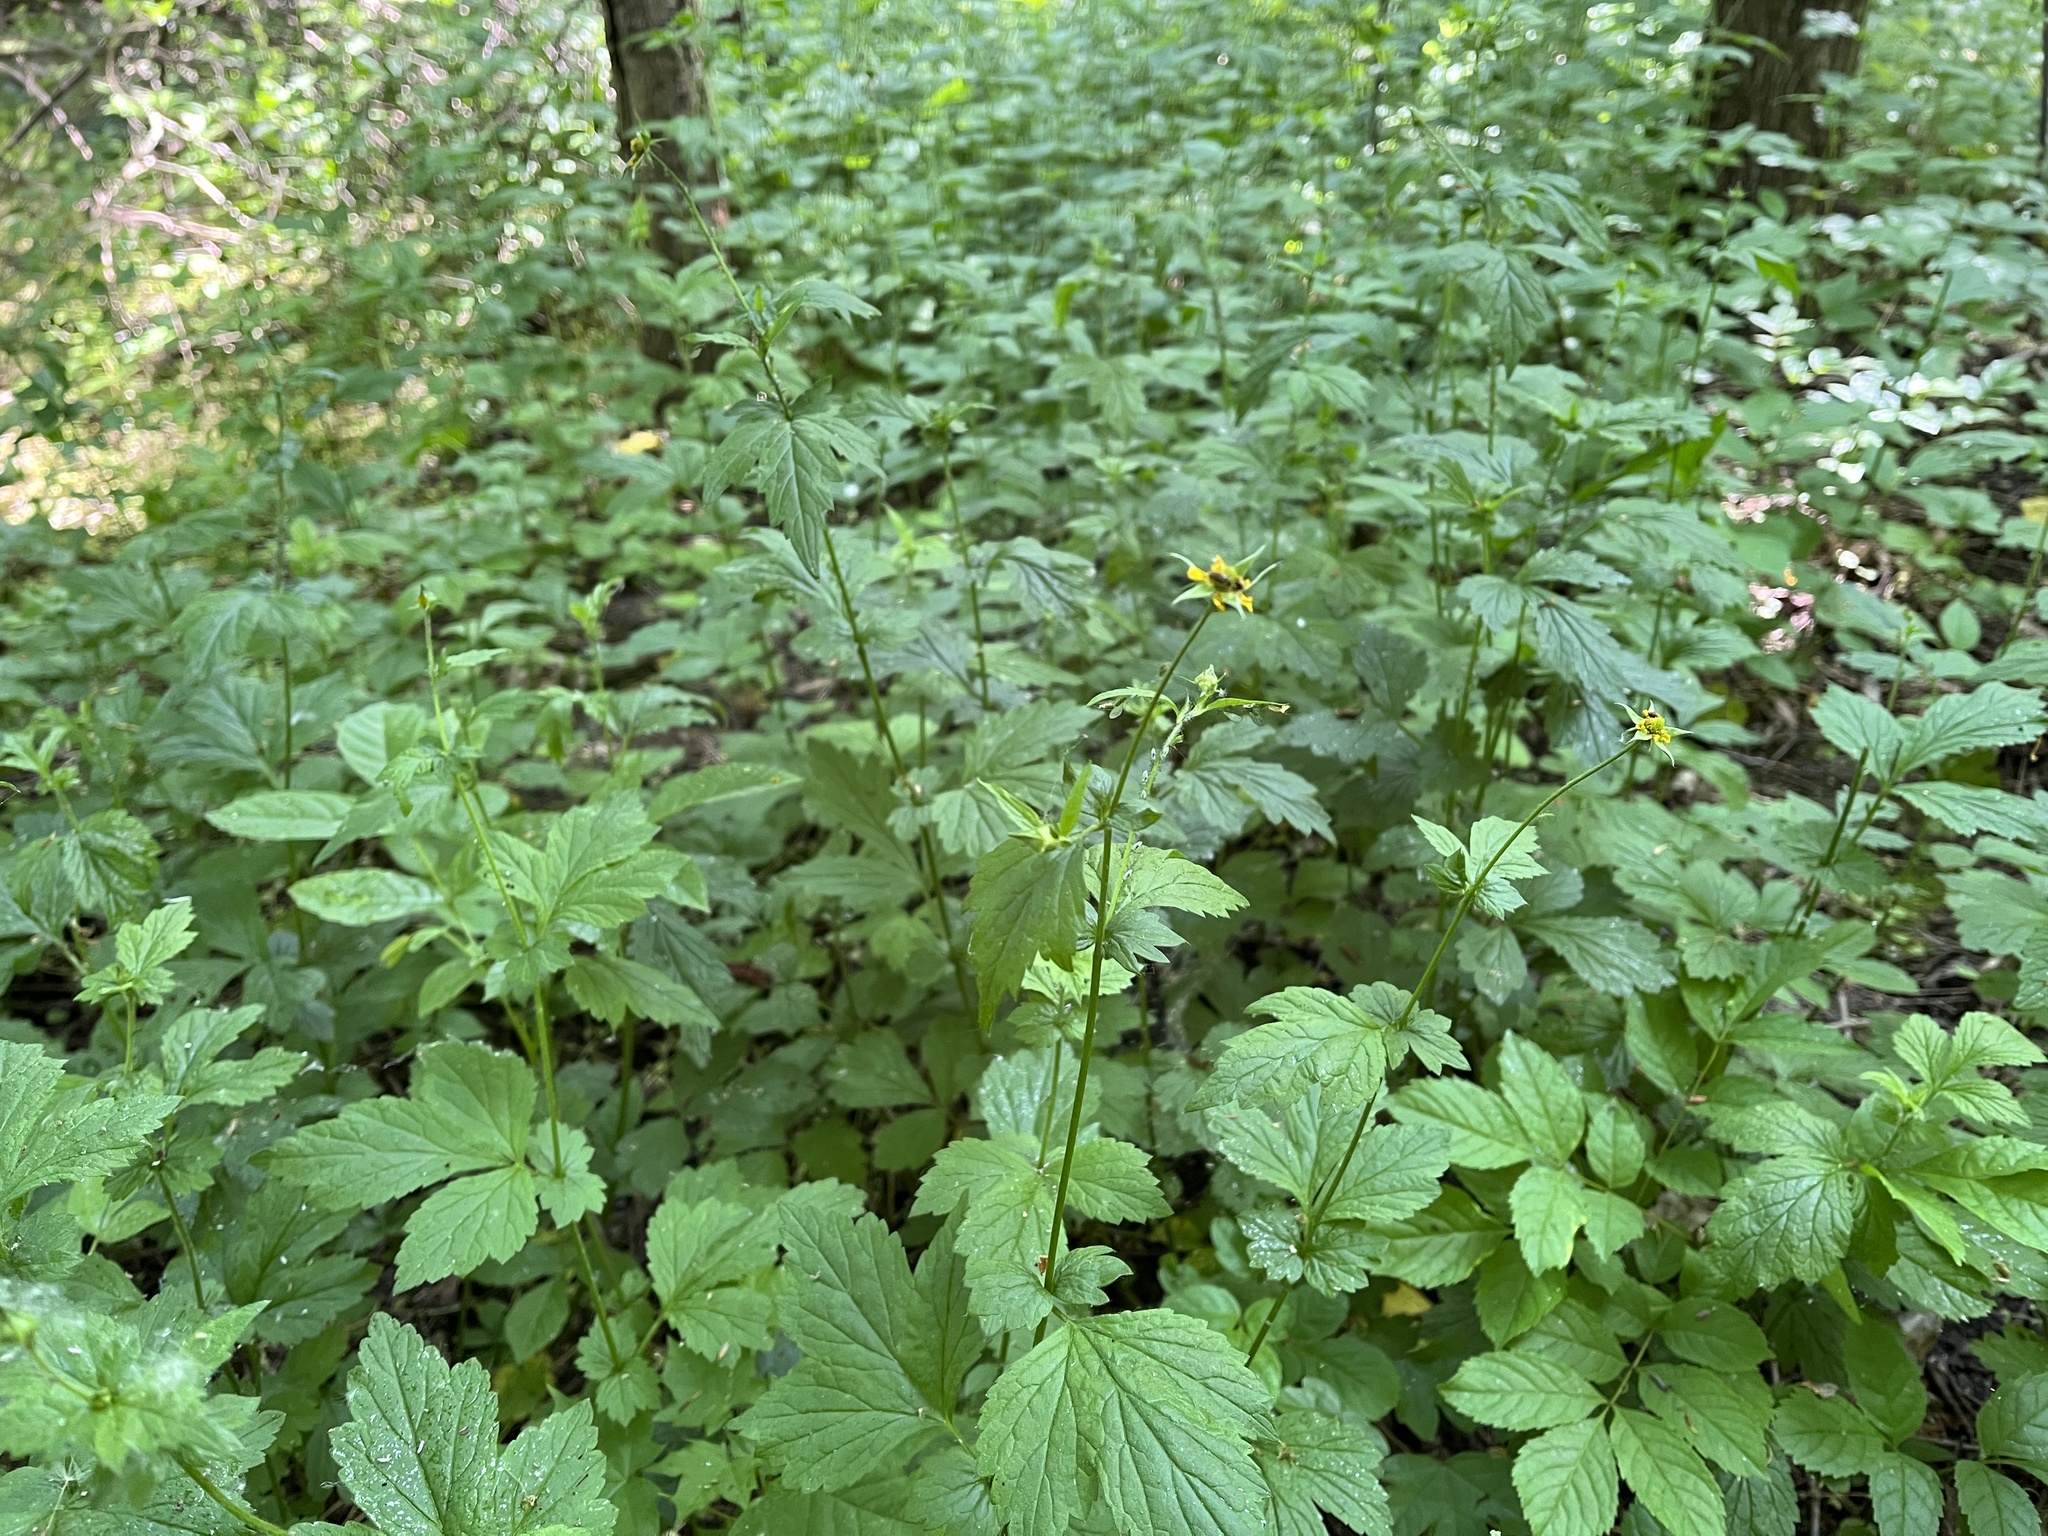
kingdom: Plantae
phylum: Tracheophyta
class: Magnoliopsida
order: Rosales
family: Rosaceae
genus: Geum
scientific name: Geum urbanum
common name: Wood avens
